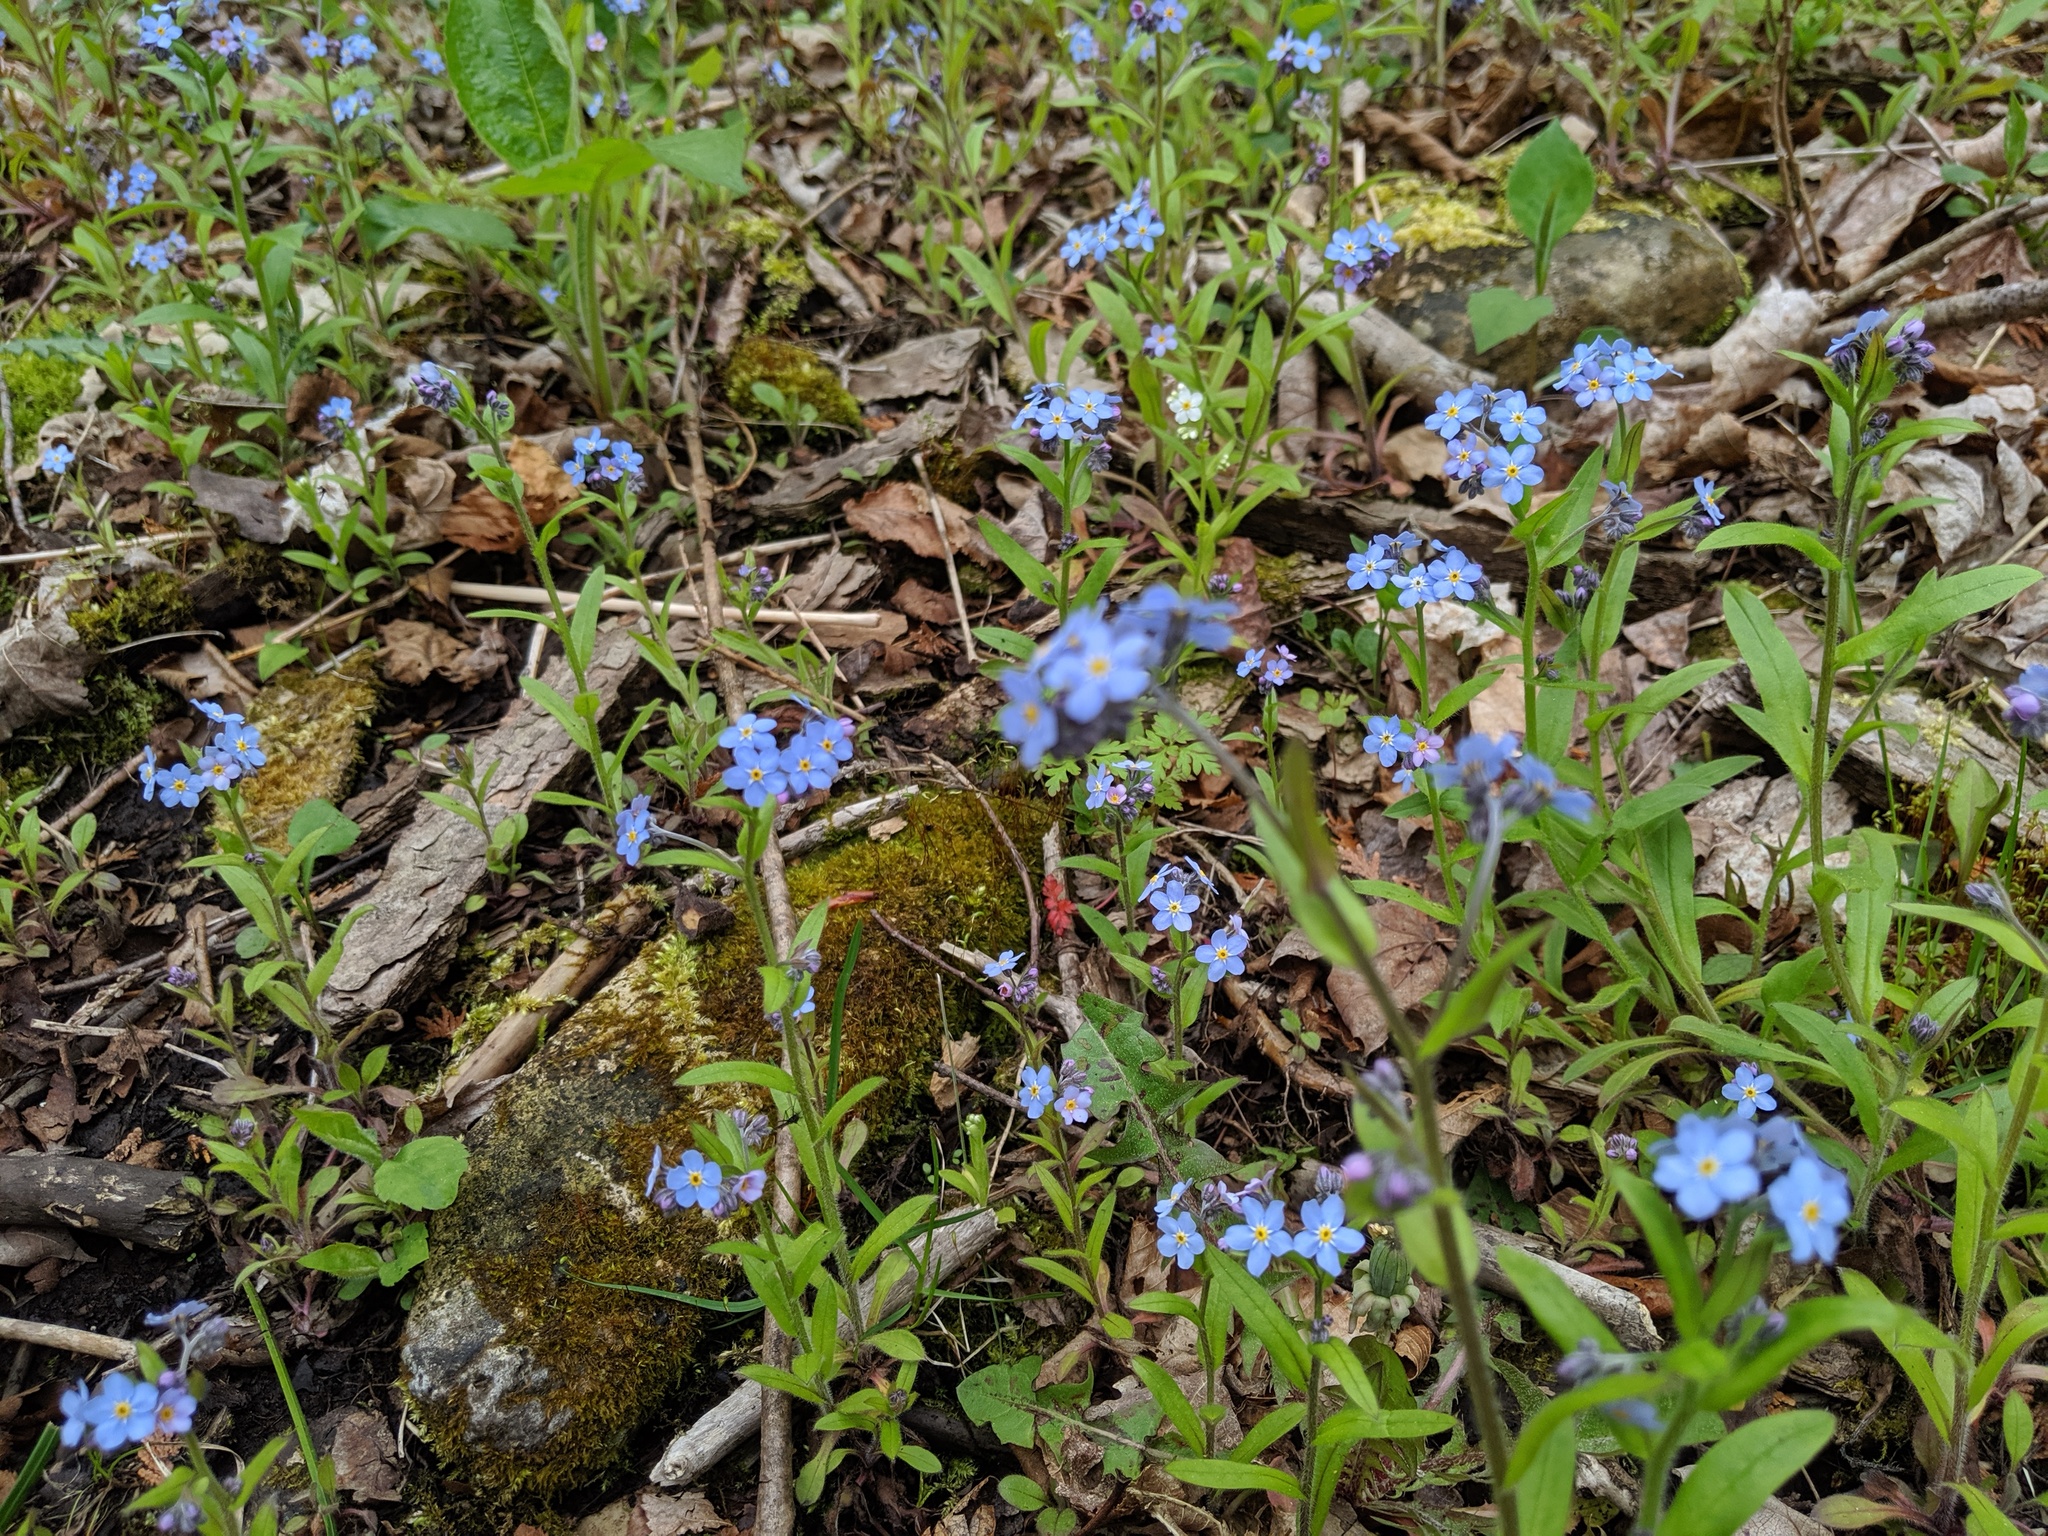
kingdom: Plantae
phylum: Tracheophyta
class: Magnoliopsida
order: Boraginales
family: Boraginaceae
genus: Myosotis
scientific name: Myosotis sylvatica
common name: Wood forget-me-not
